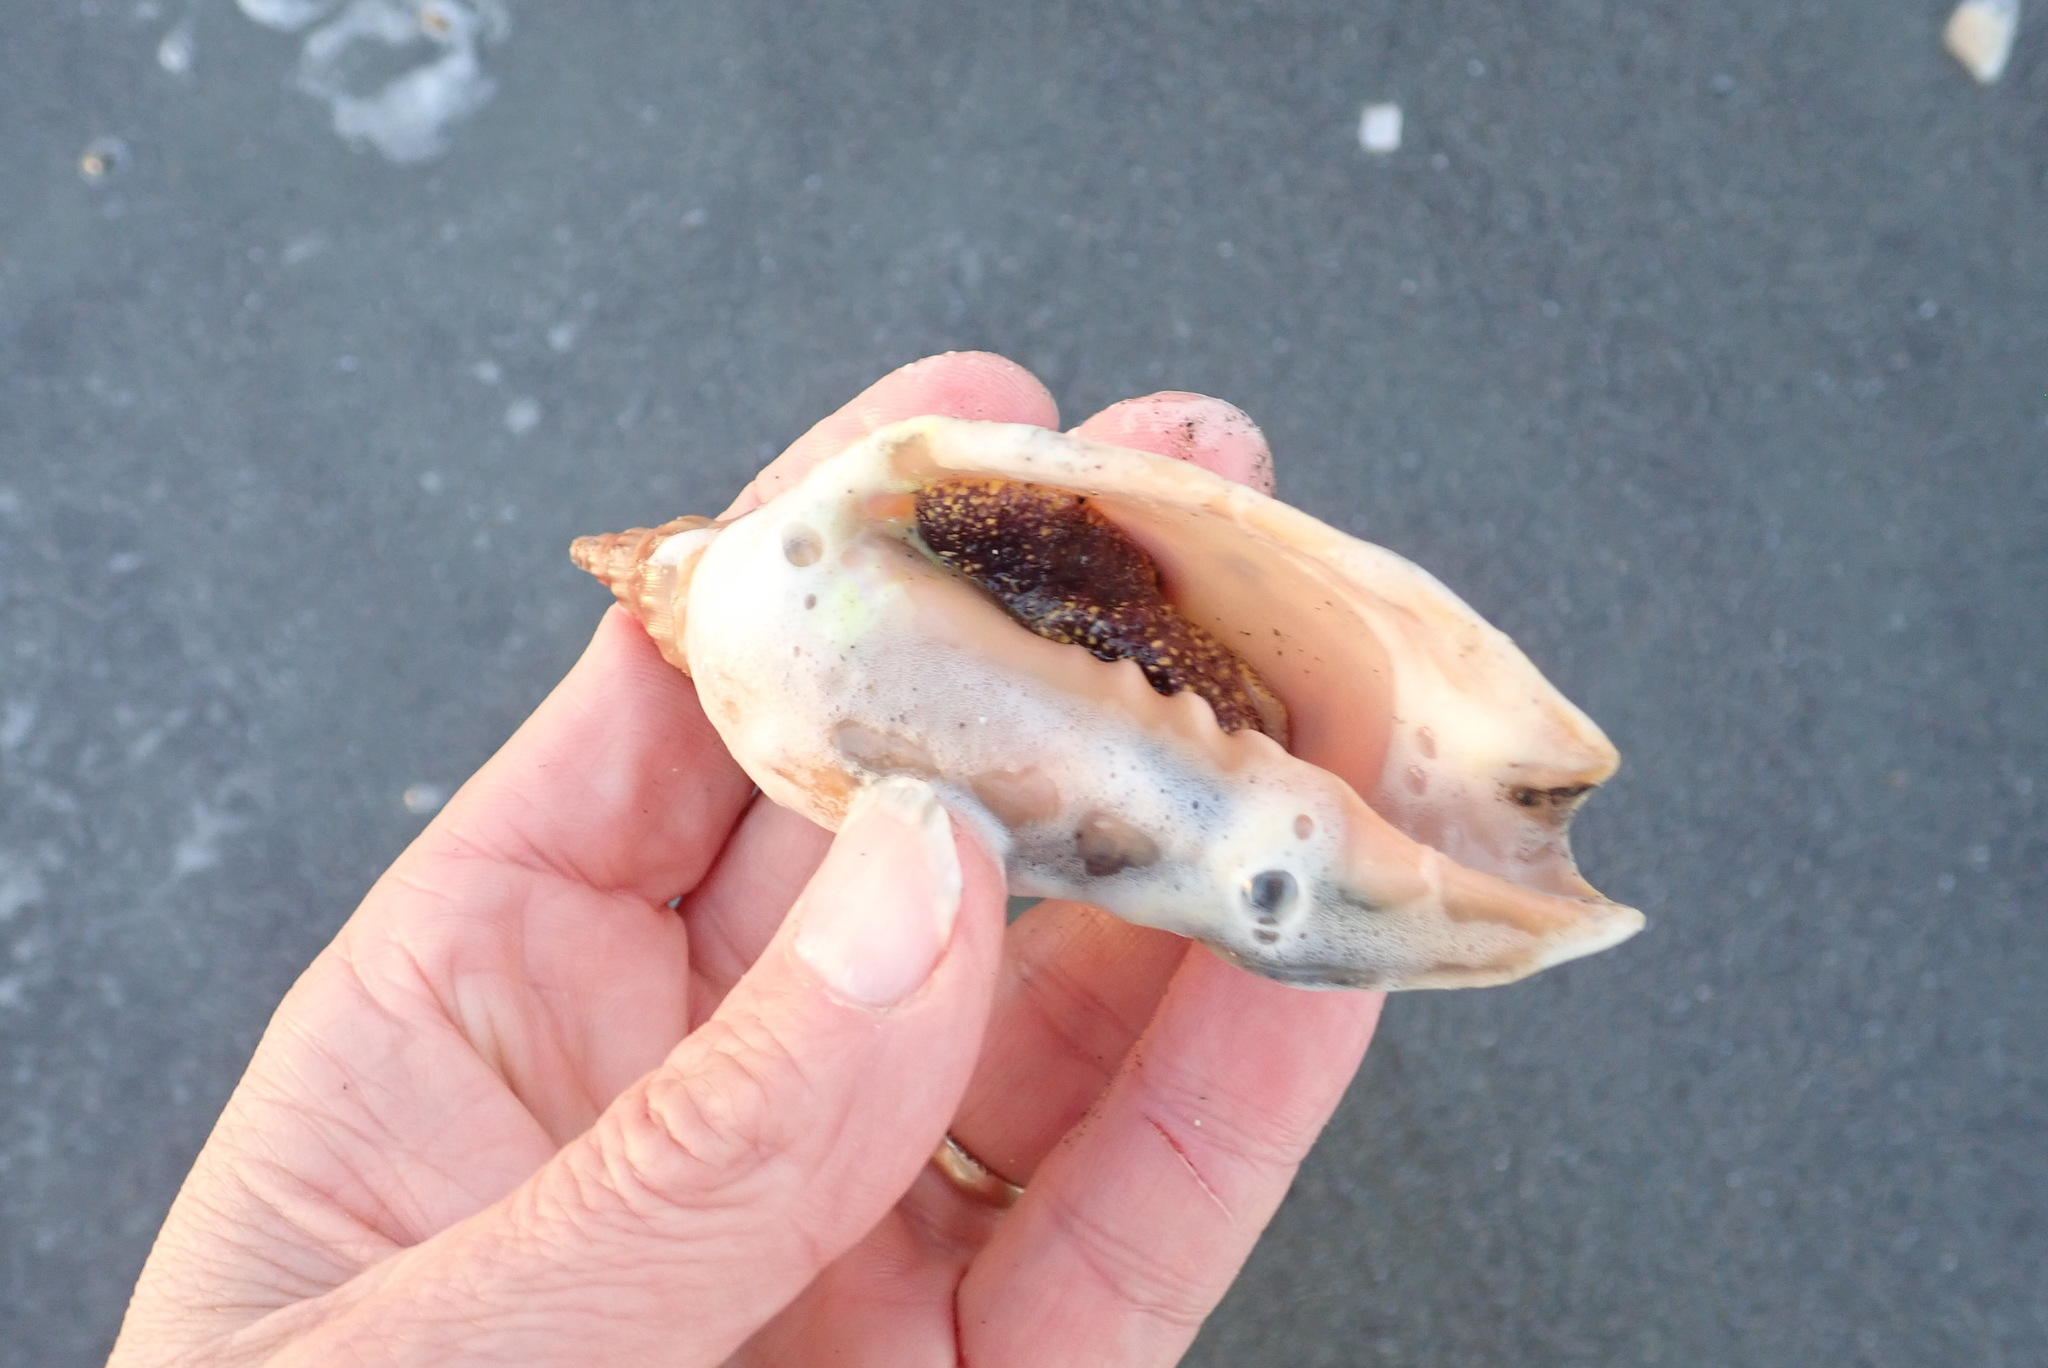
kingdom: Animalia
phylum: Mollusca
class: Gastropoda
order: Neogastropoda
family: Volutidae
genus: Alcithoe
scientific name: Alcithoe arabica
